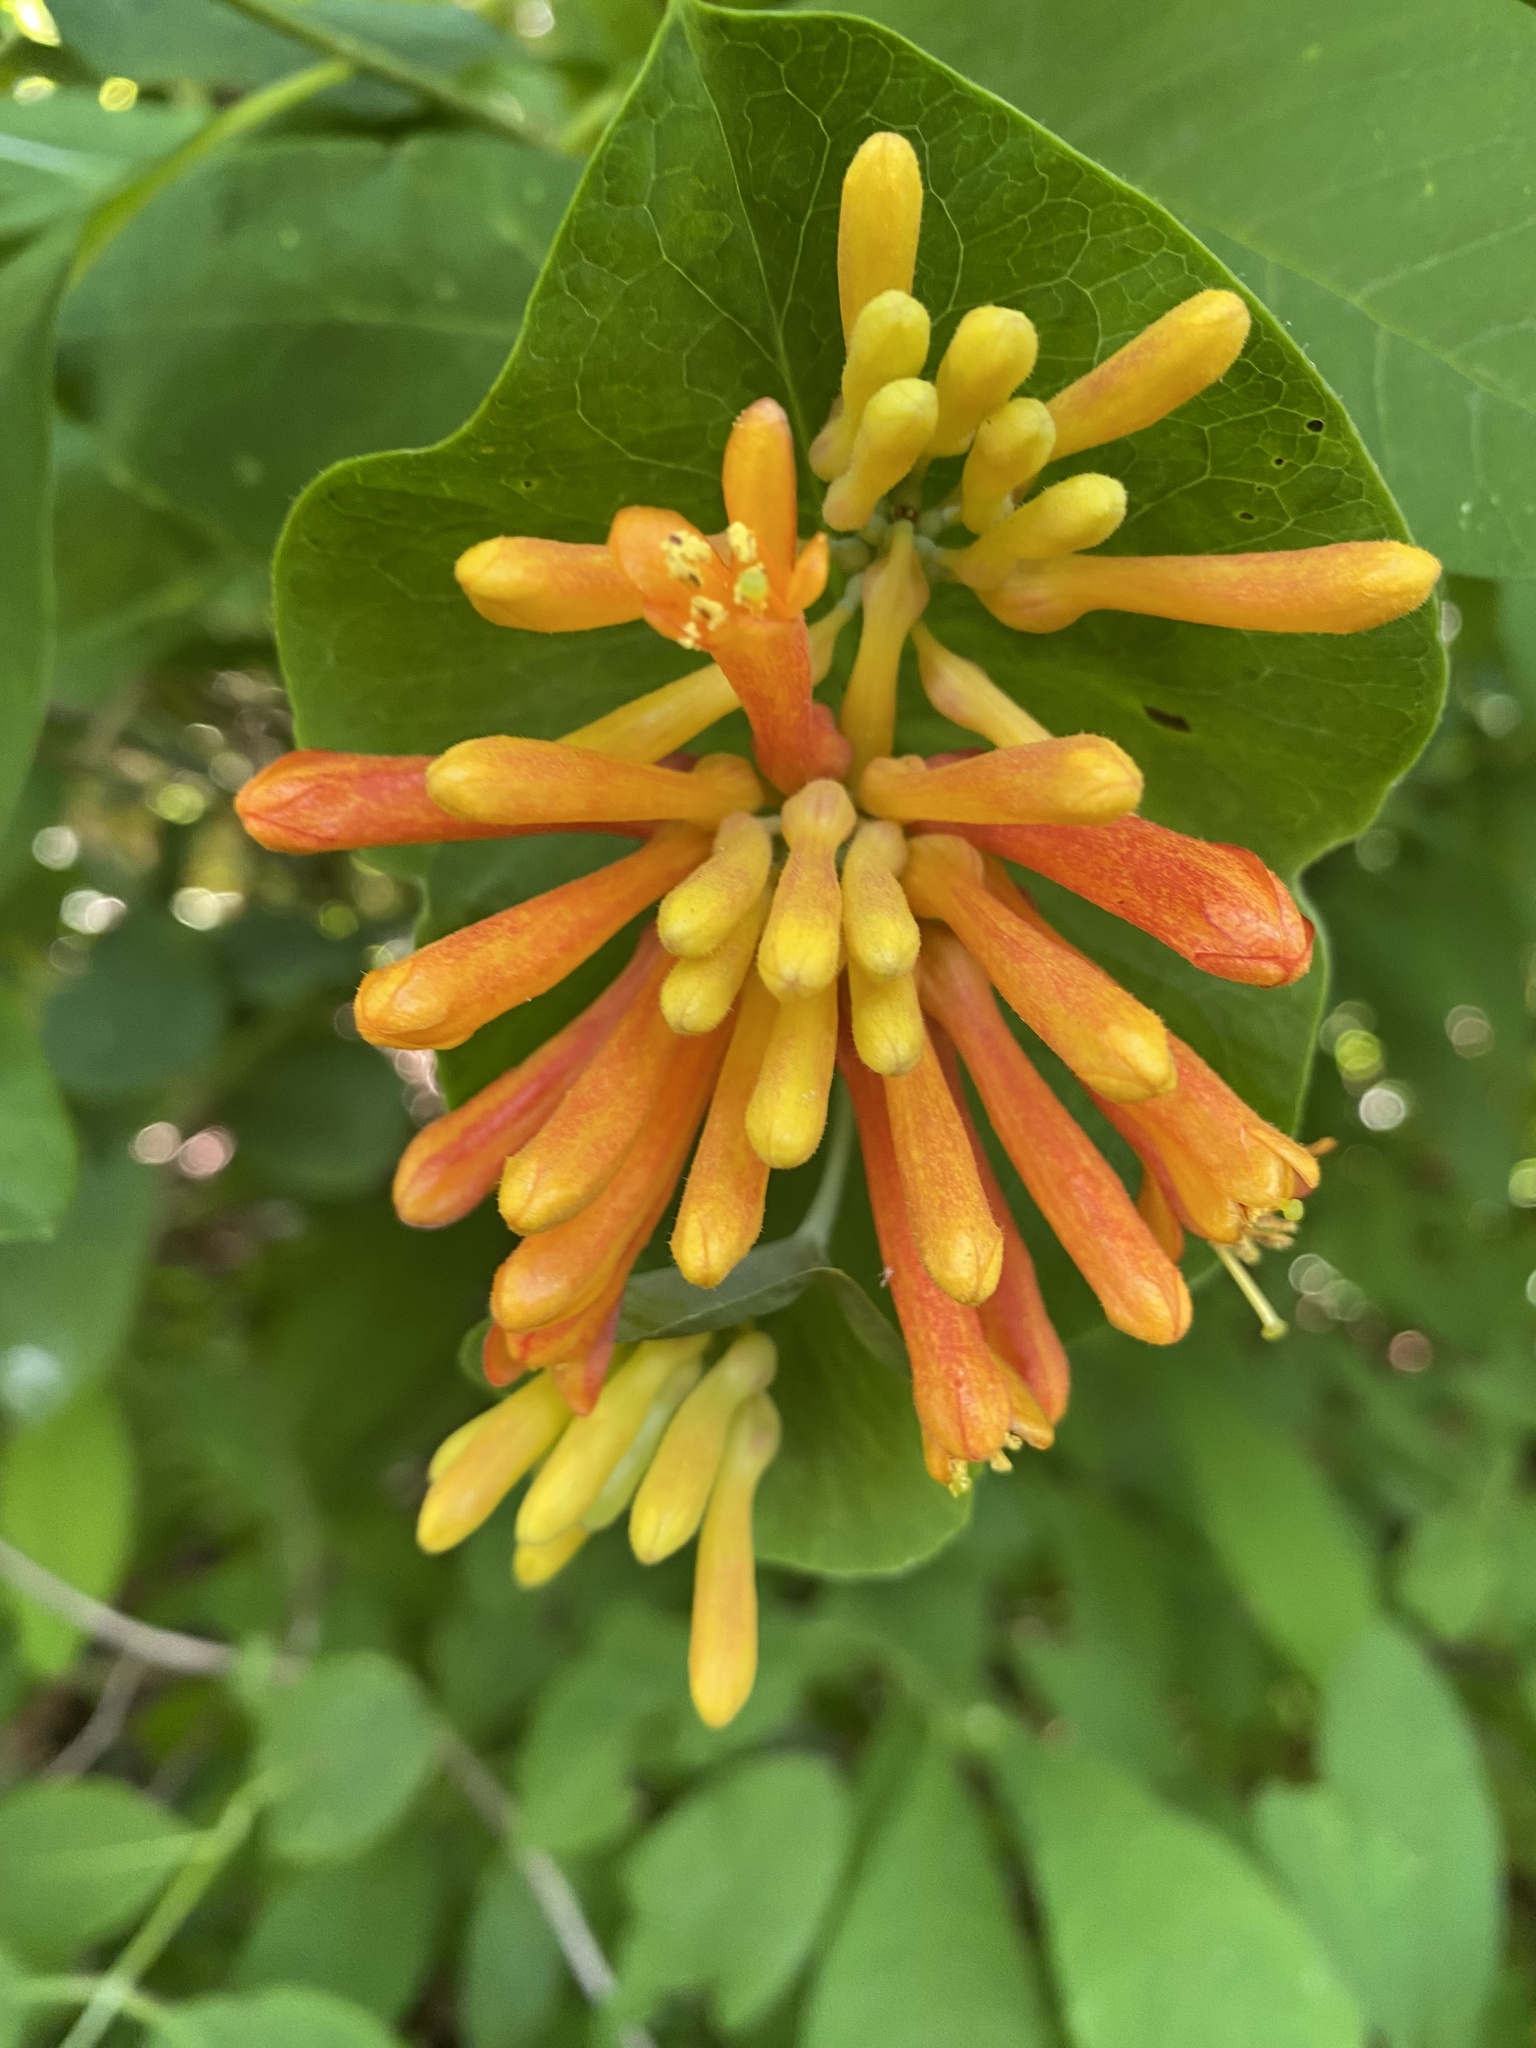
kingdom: Plantae
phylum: Tracheophyta
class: Magnoliopsida
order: Dipsacales
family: Caprifoliaceae
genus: Lonicera
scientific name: Lonicera ciliosa
